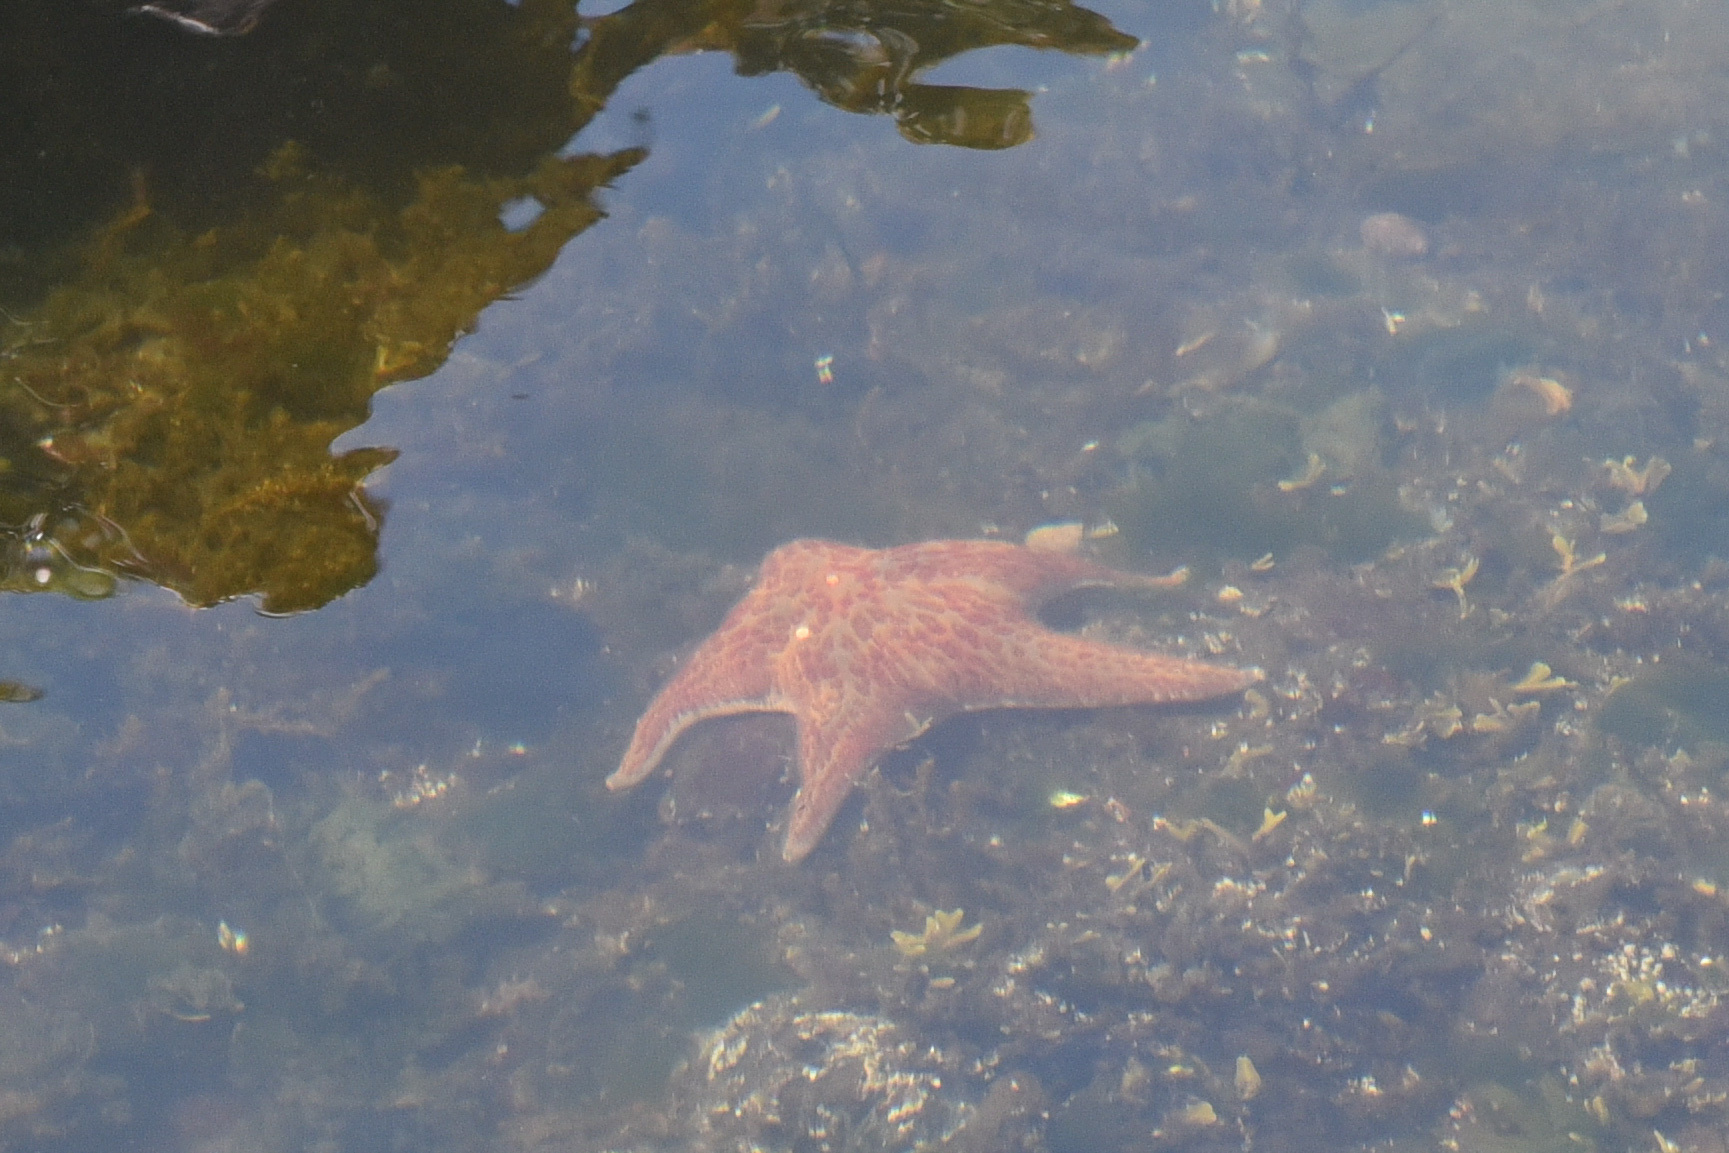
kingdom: Animalia
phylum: Echinodermata
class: Asteroidea
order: Valvatida
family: Asteropseidae
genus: Dermasterias
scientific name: Dermasterias imbricata
